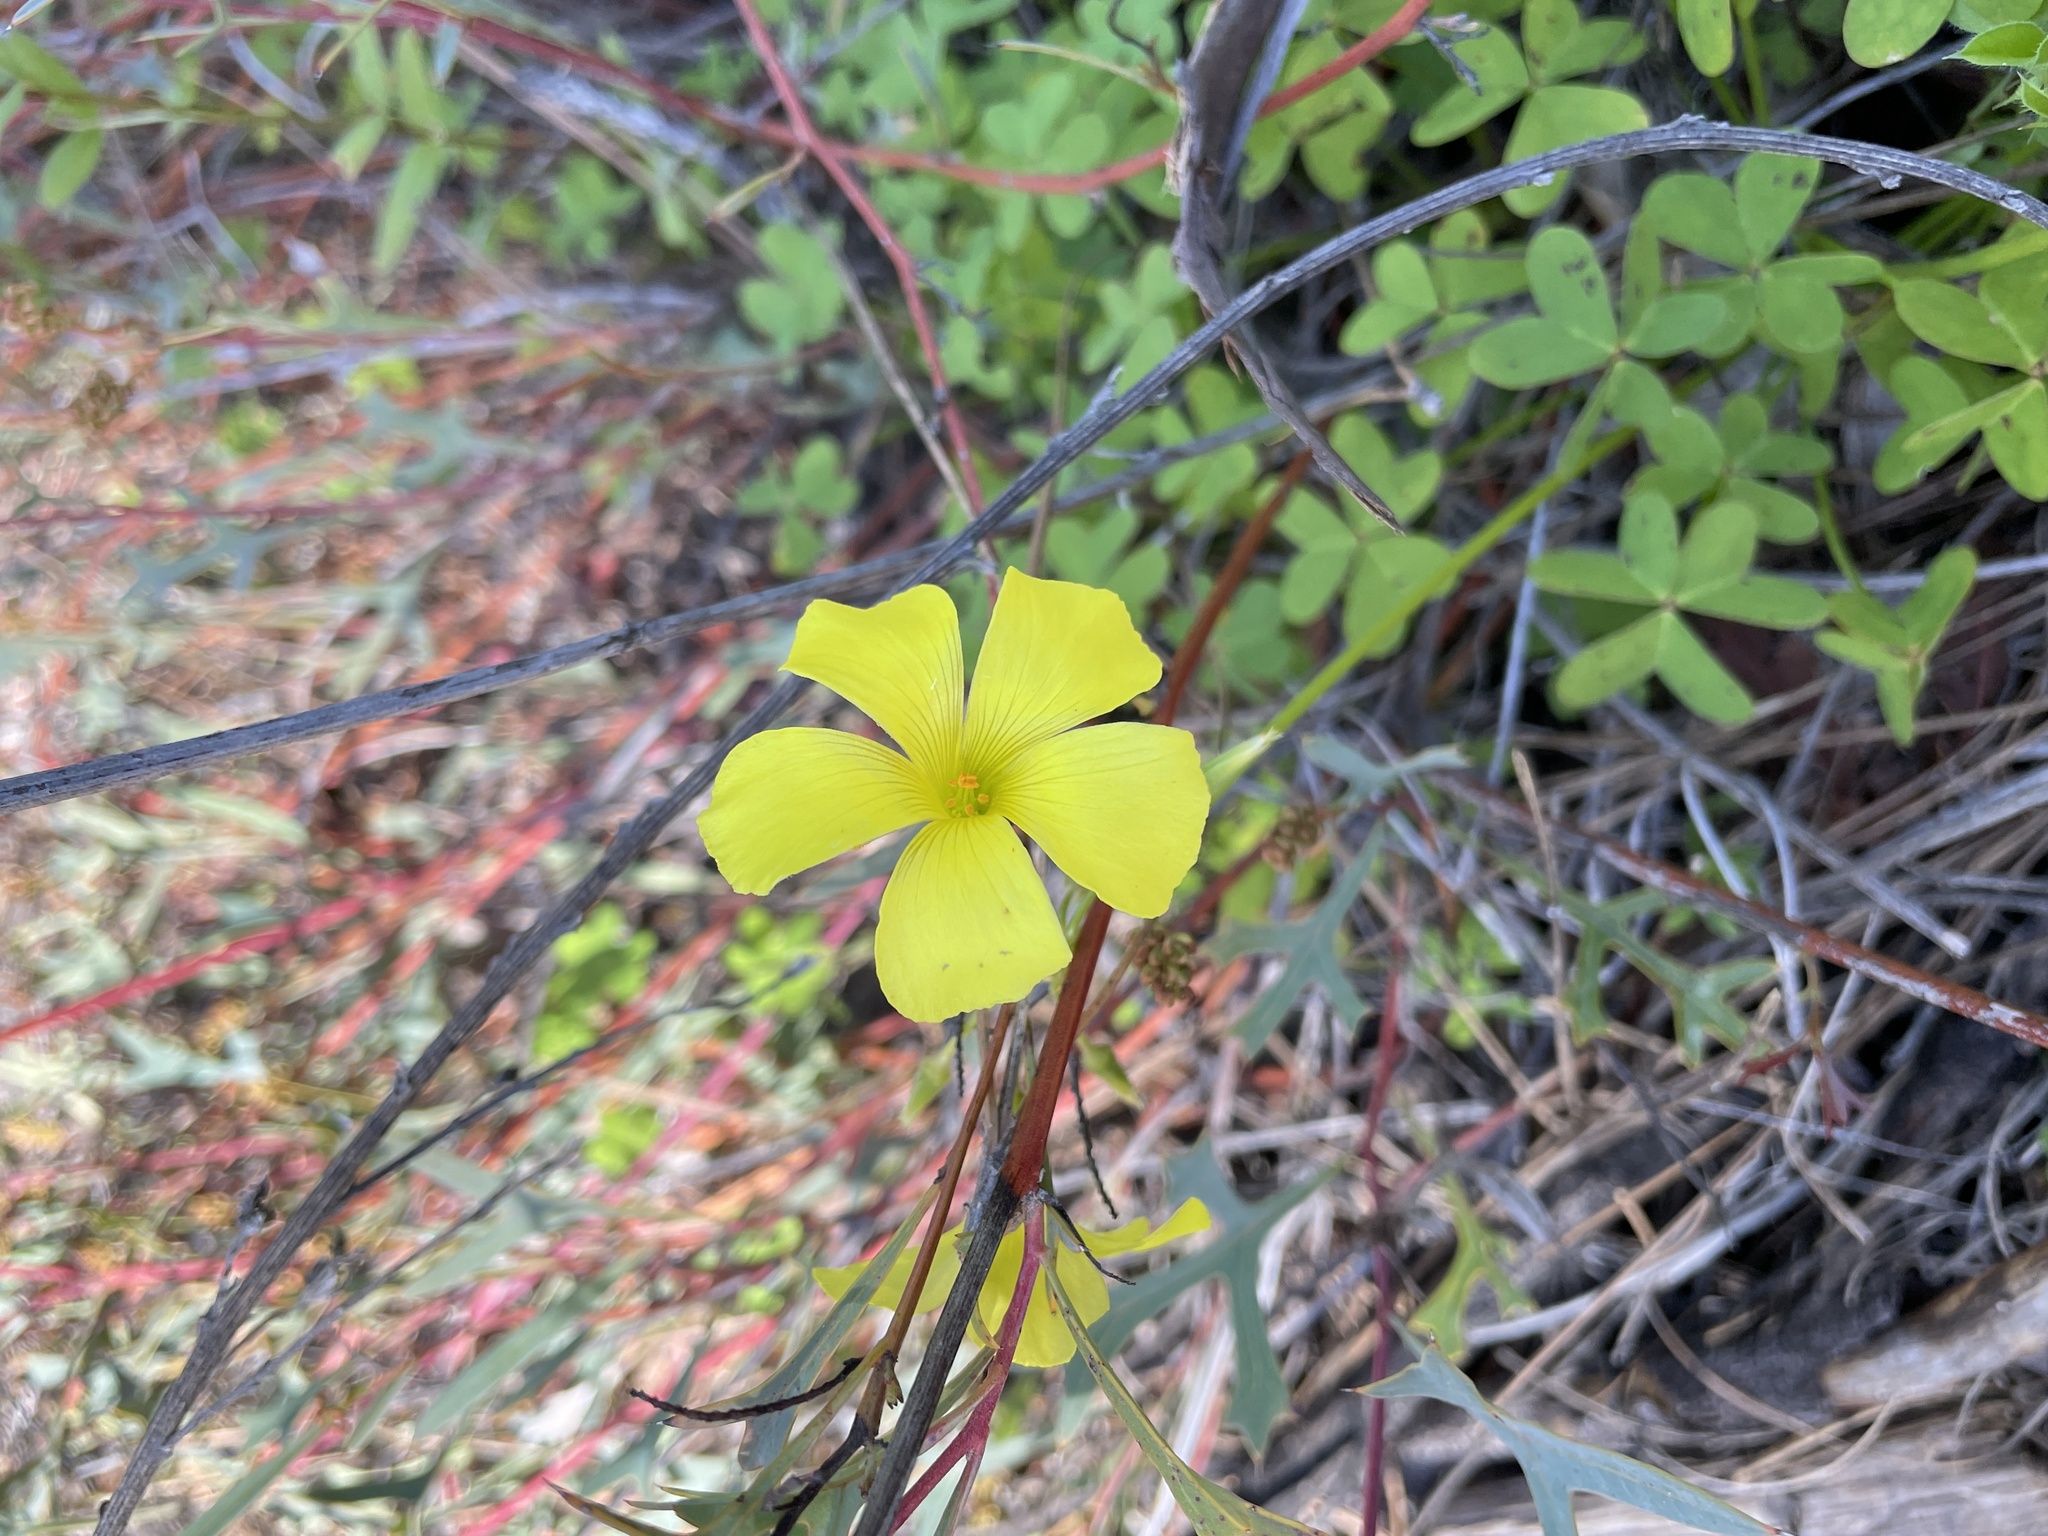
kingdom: Plantae
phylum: Tracheophyta
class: Magnoliopsida
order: Oxalidales
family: Oxalidaceae
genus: Oxalis
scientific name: Oxalis pes-caprae
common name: Bermuda-buttercup
